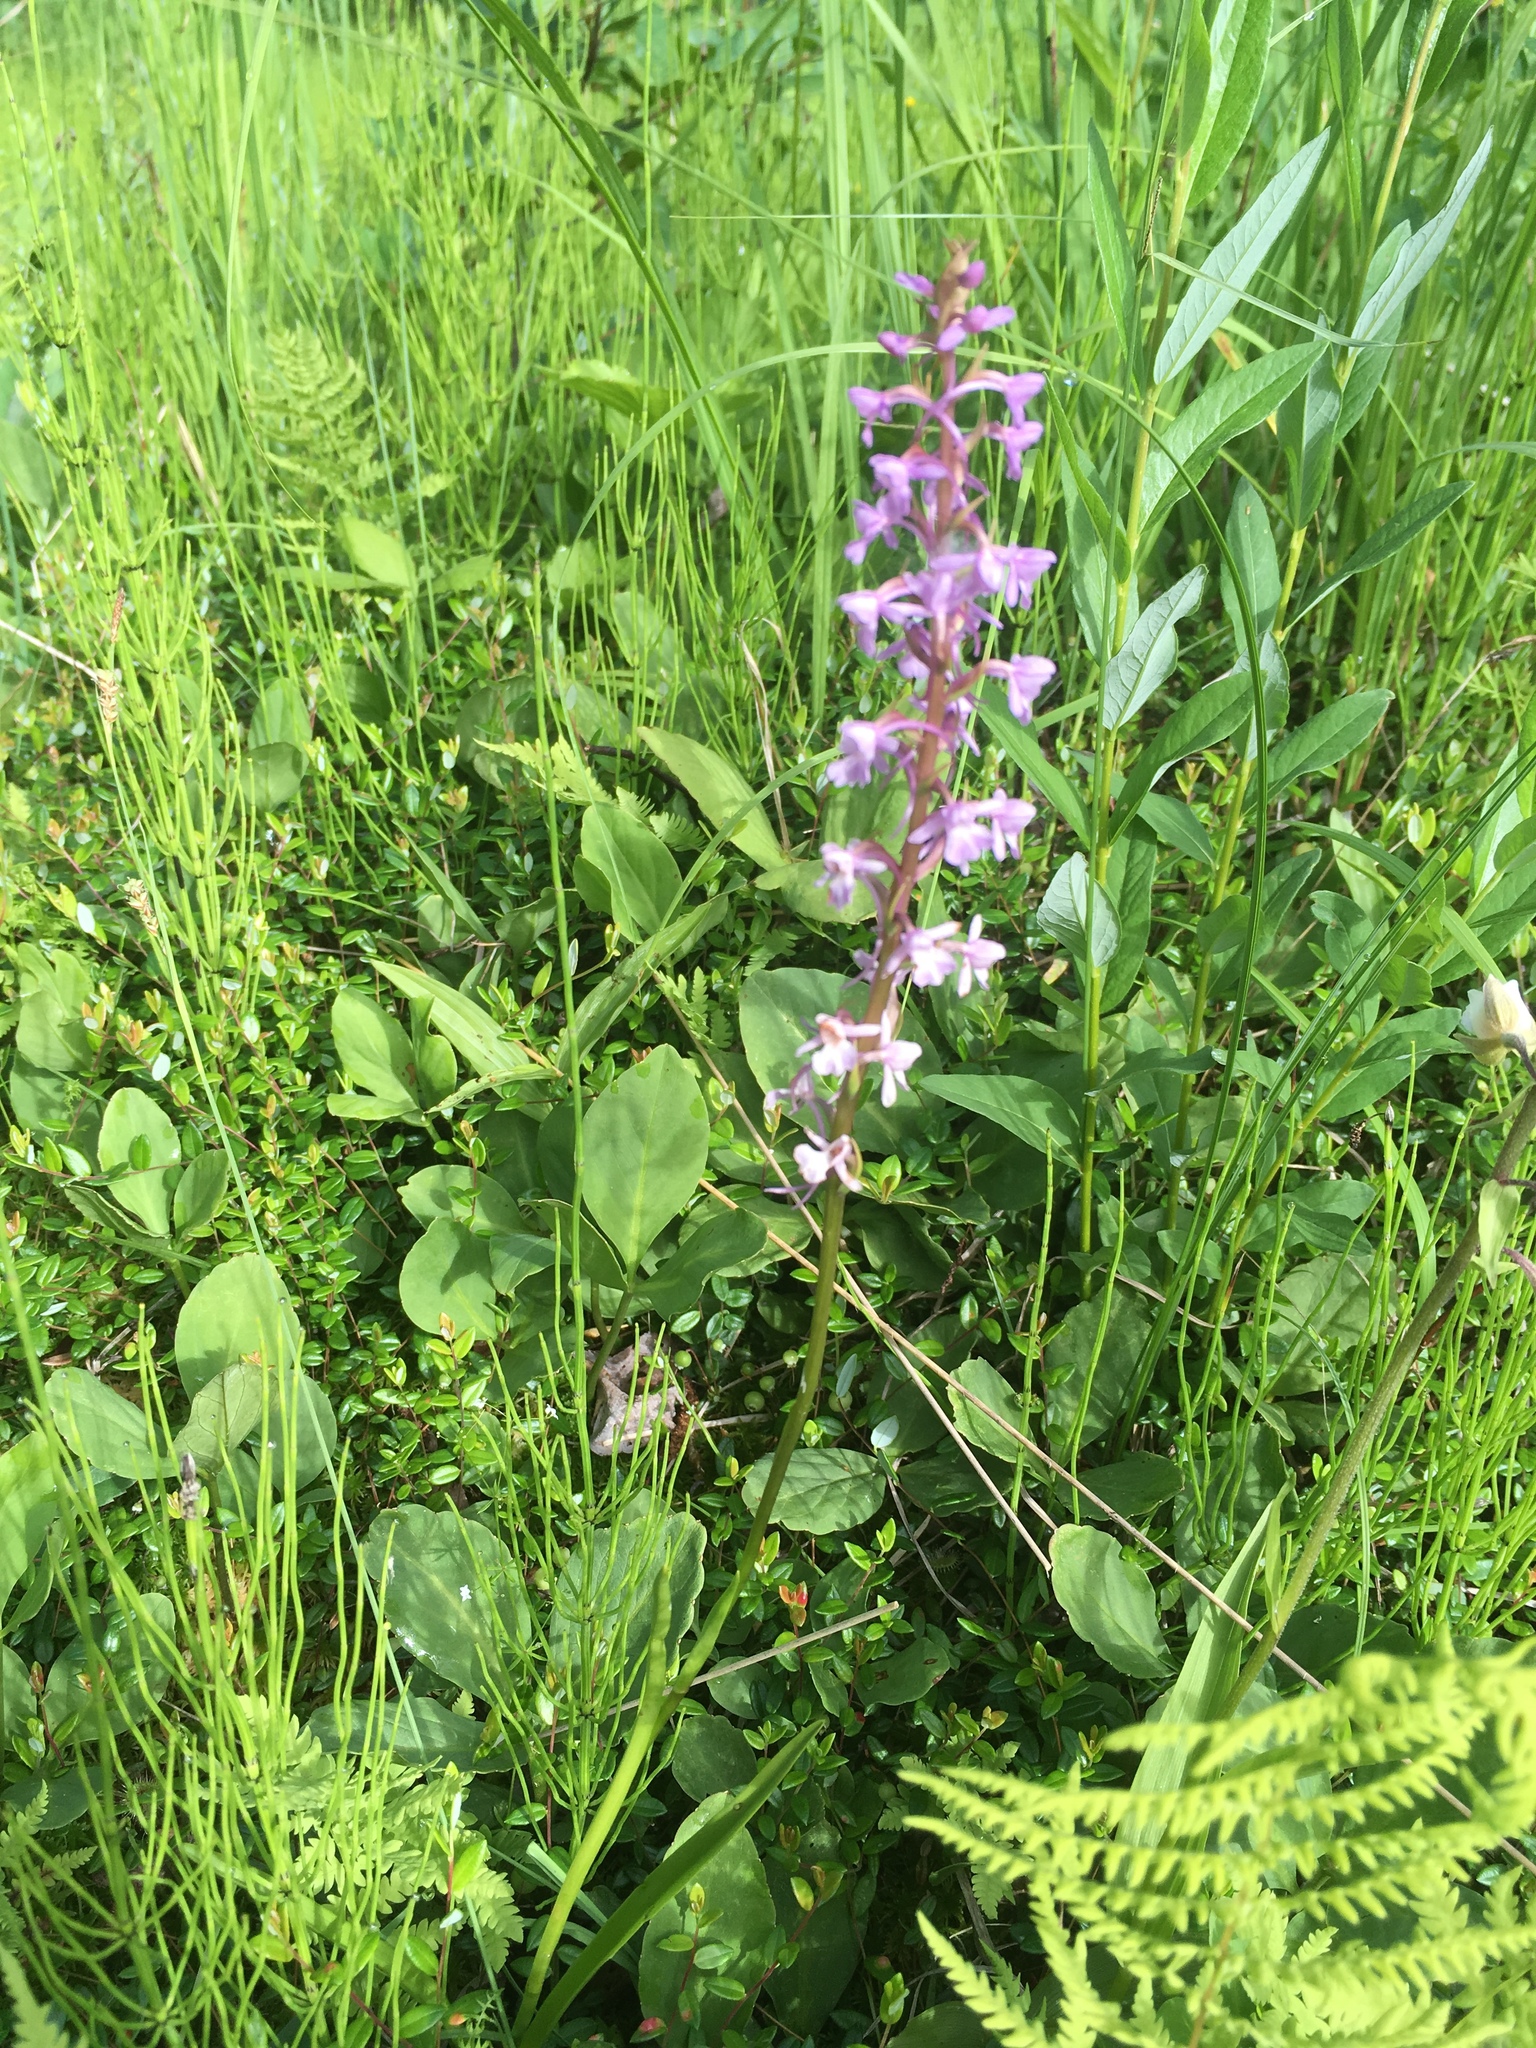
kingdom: Plantae
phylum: Tracheophyta
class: Liliopsida
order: Asparagales
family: Orchidaceae
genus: Gymnadenia
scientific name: Gymnadenia conopsea
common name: Fragrant orchid
